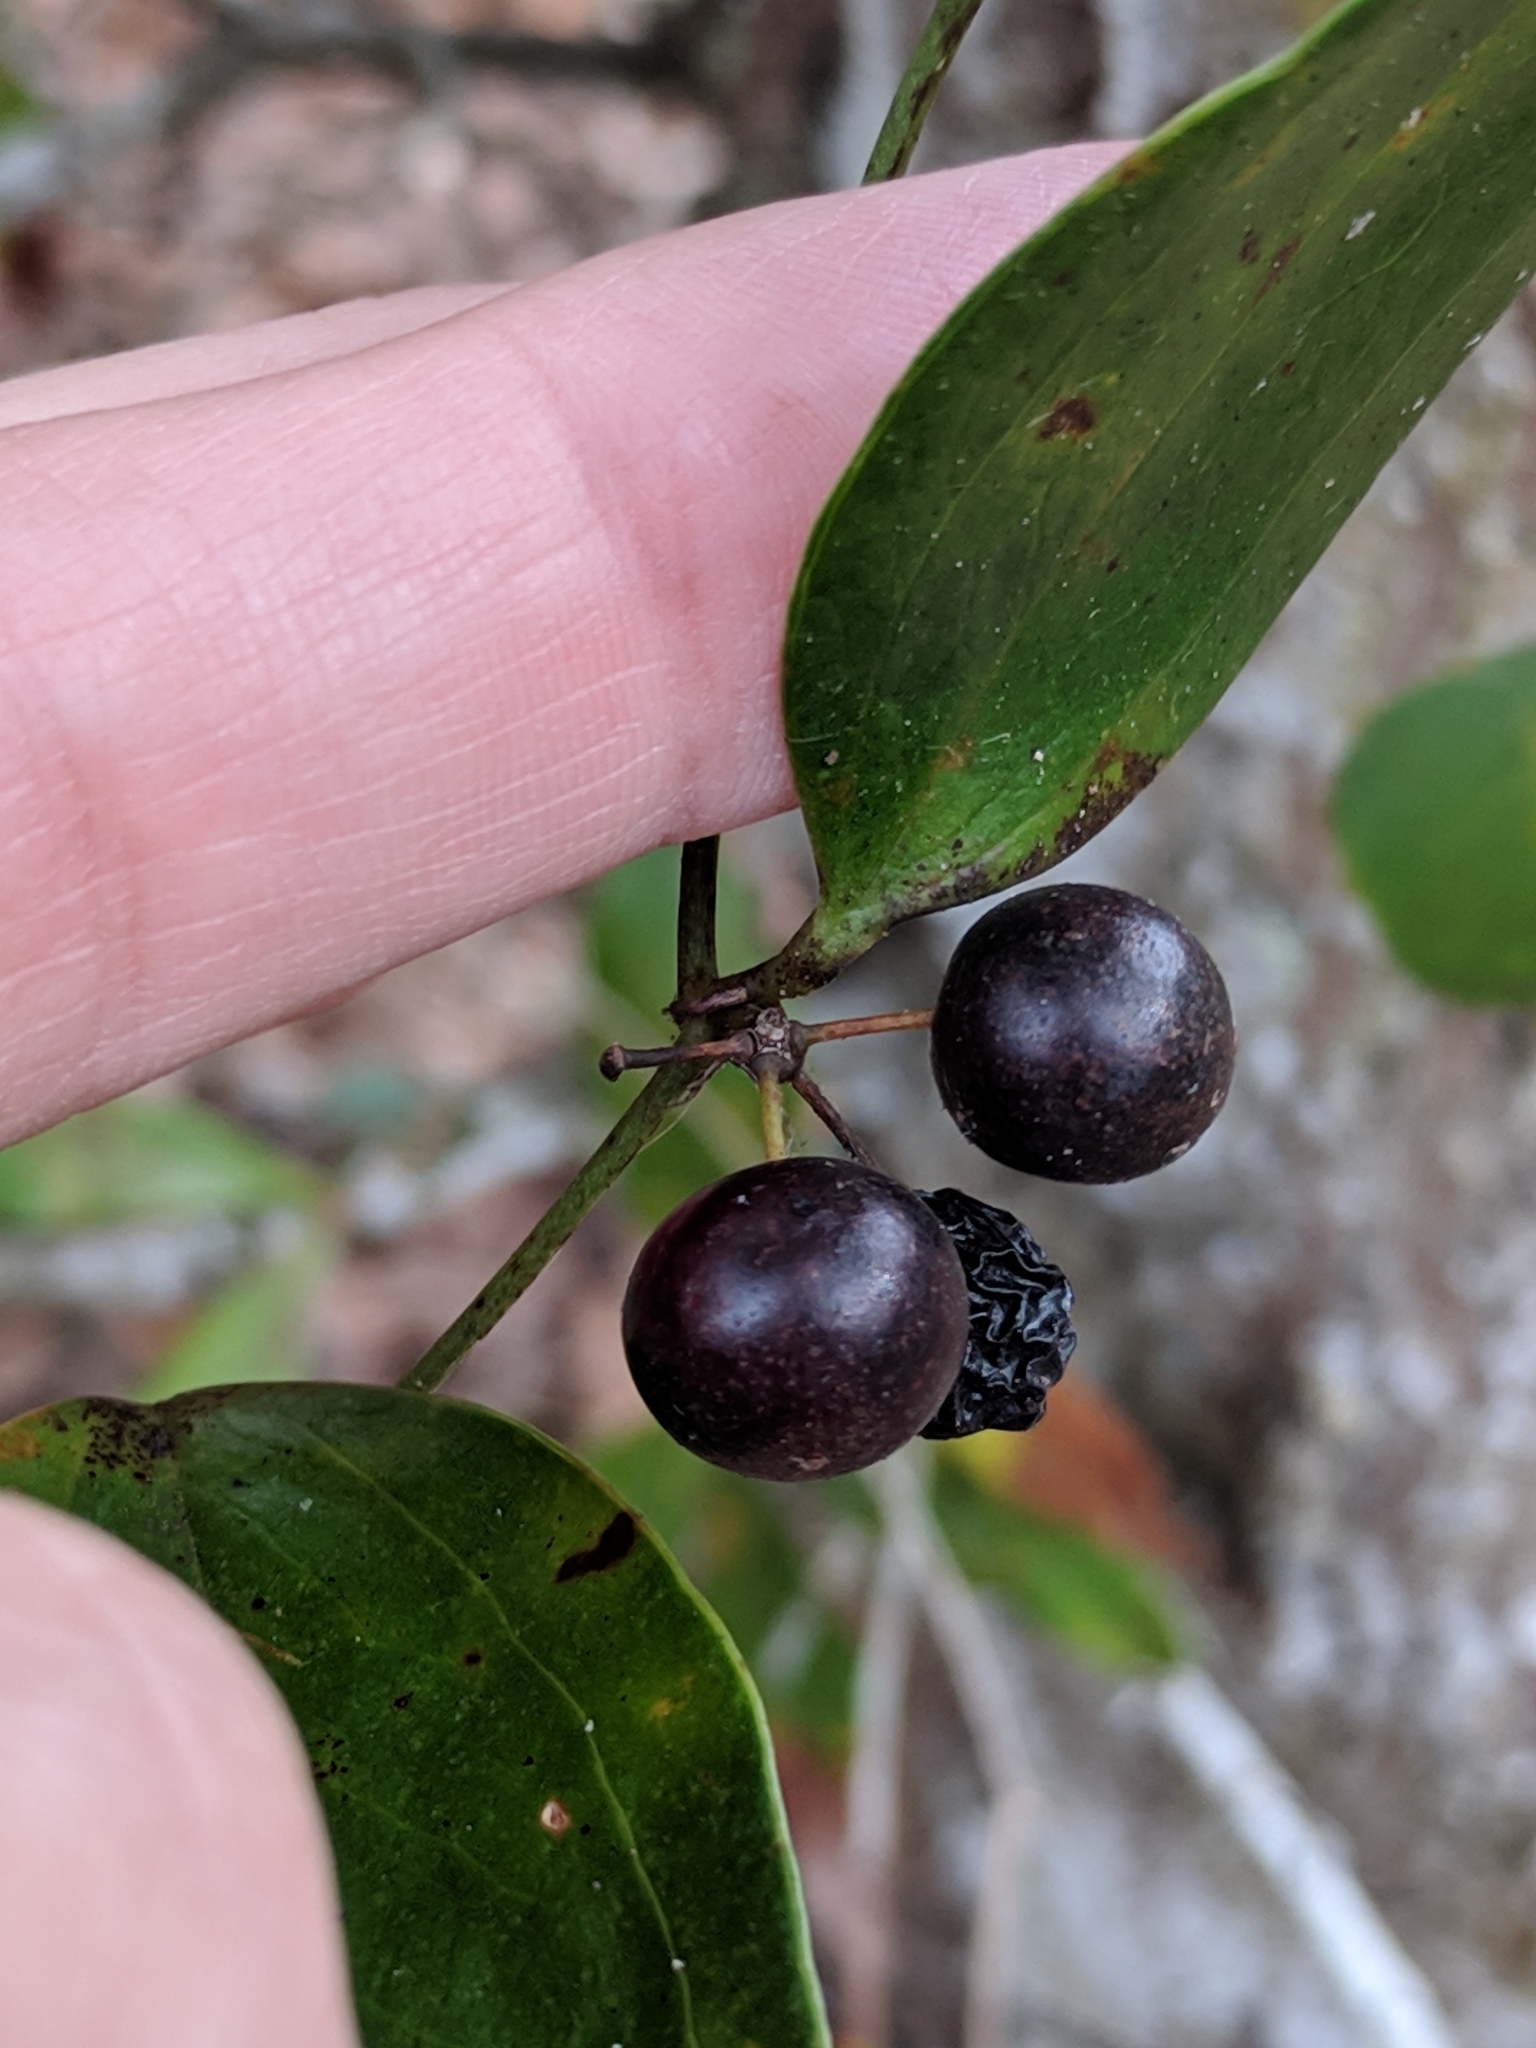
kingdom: Plantae
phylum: Tracheophyta
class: Liliopsida
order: Liliales
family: Smilacaceae
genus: Smilax
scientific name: Smilax auriculata
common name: Wild bamboo
